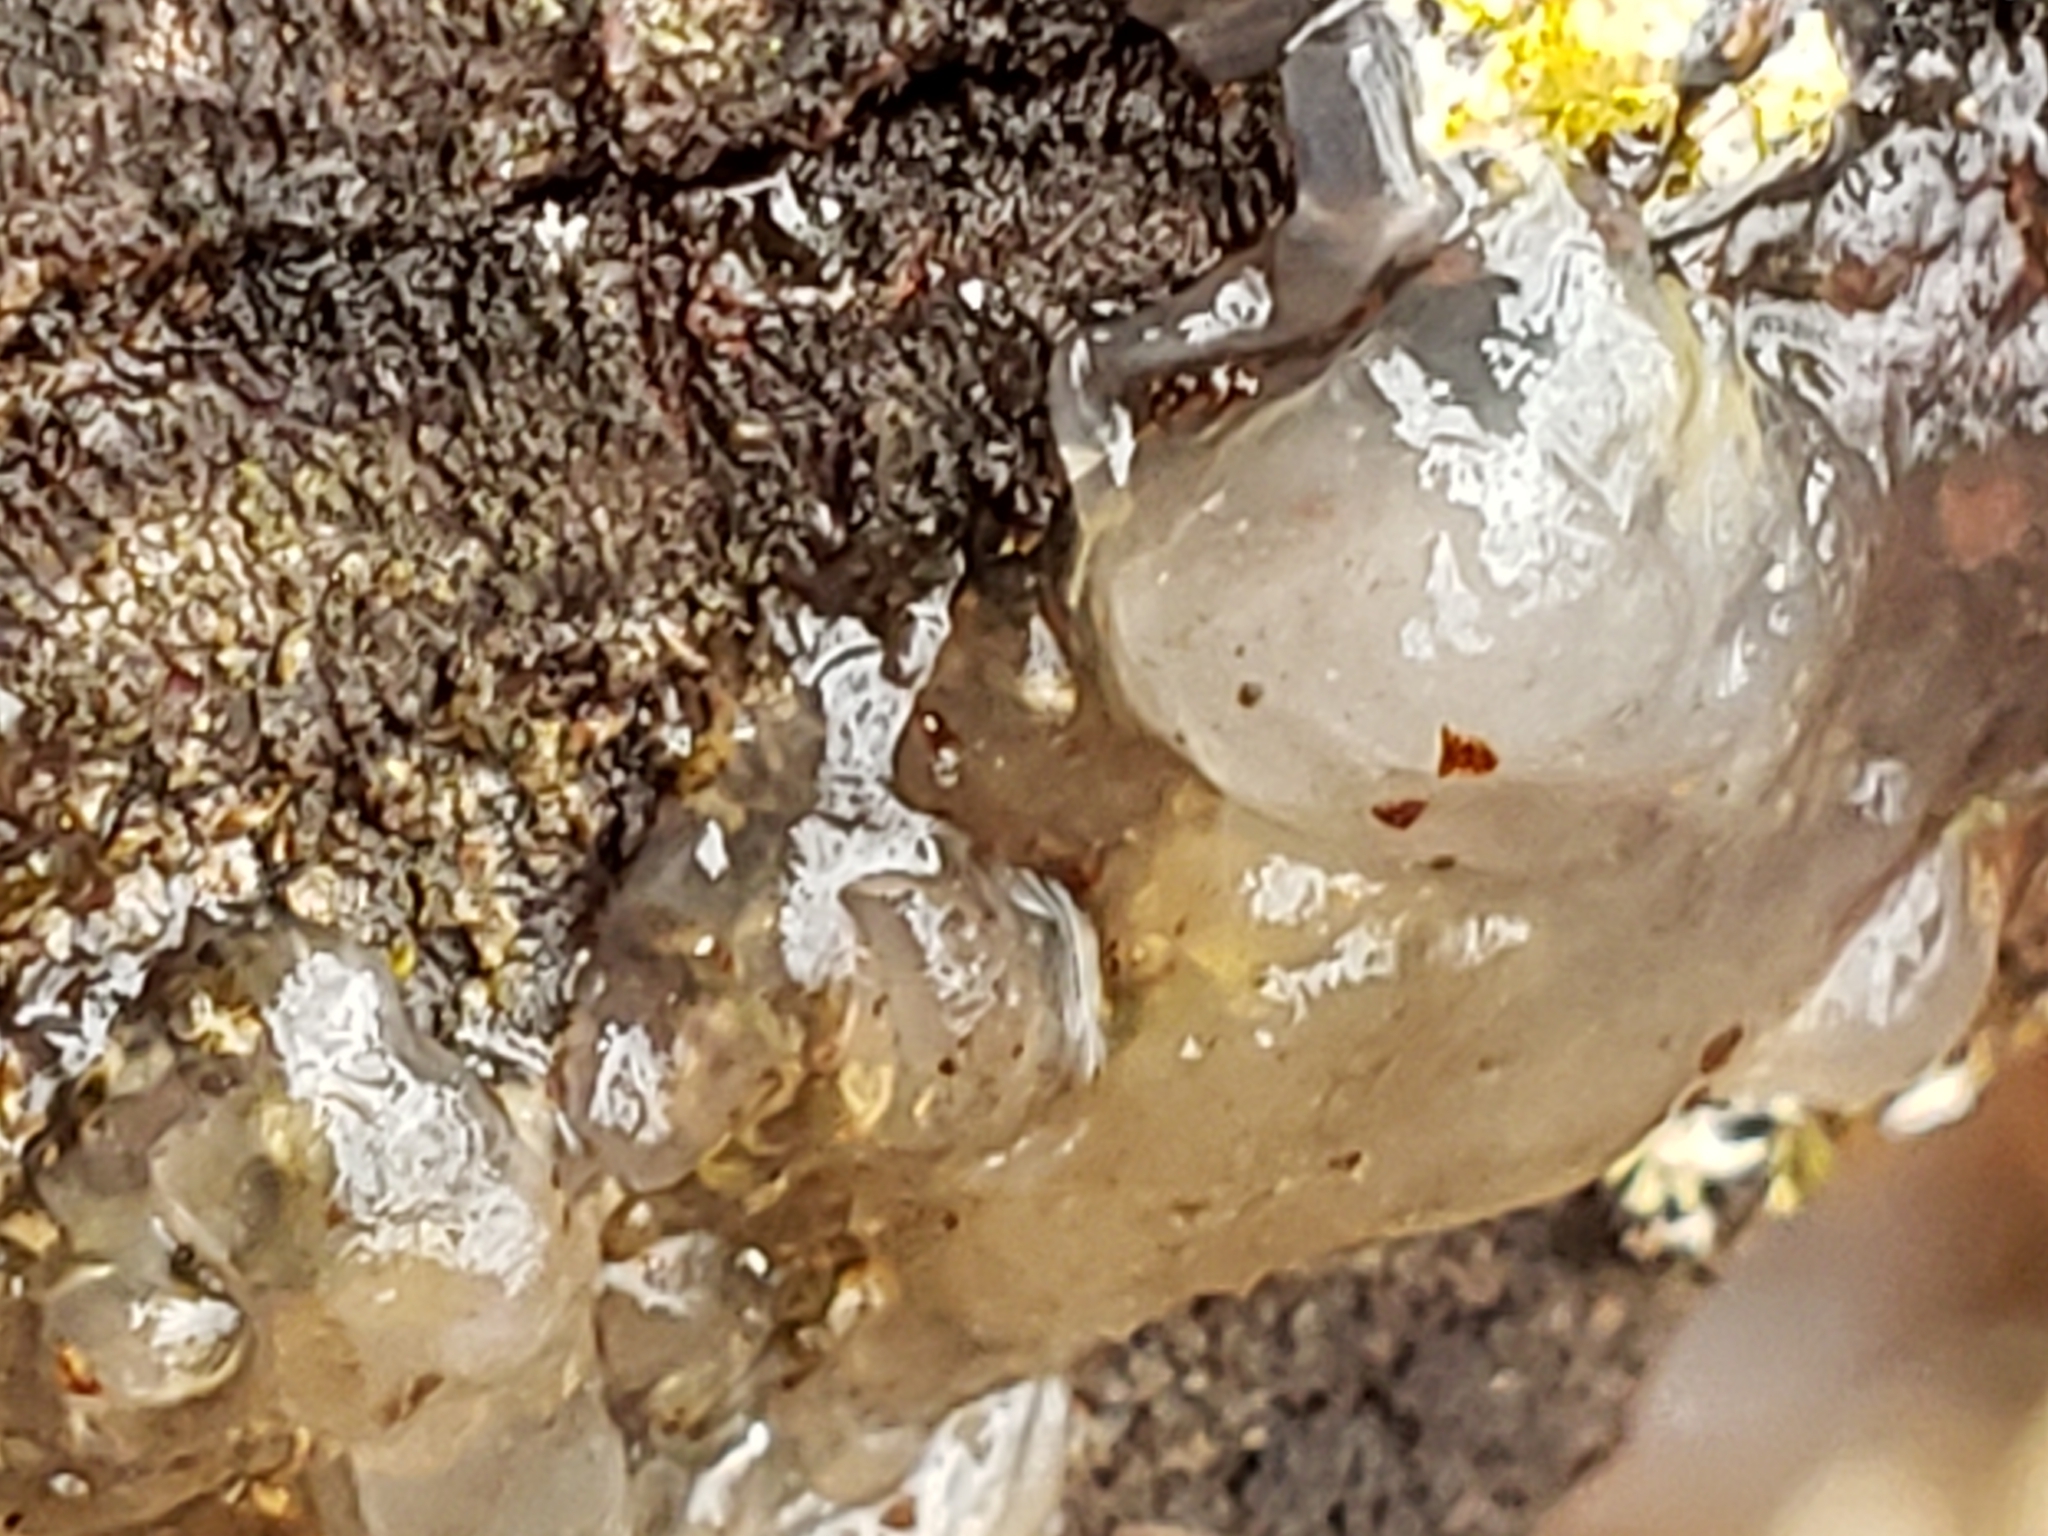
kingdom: Fungi
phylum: Basidiomycota
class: Agaricomycetes
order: Auriculariales
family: Hyaloriaceae
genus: Myxarium
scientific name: Myxarium nucleatum
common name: Crystal brain fungus
